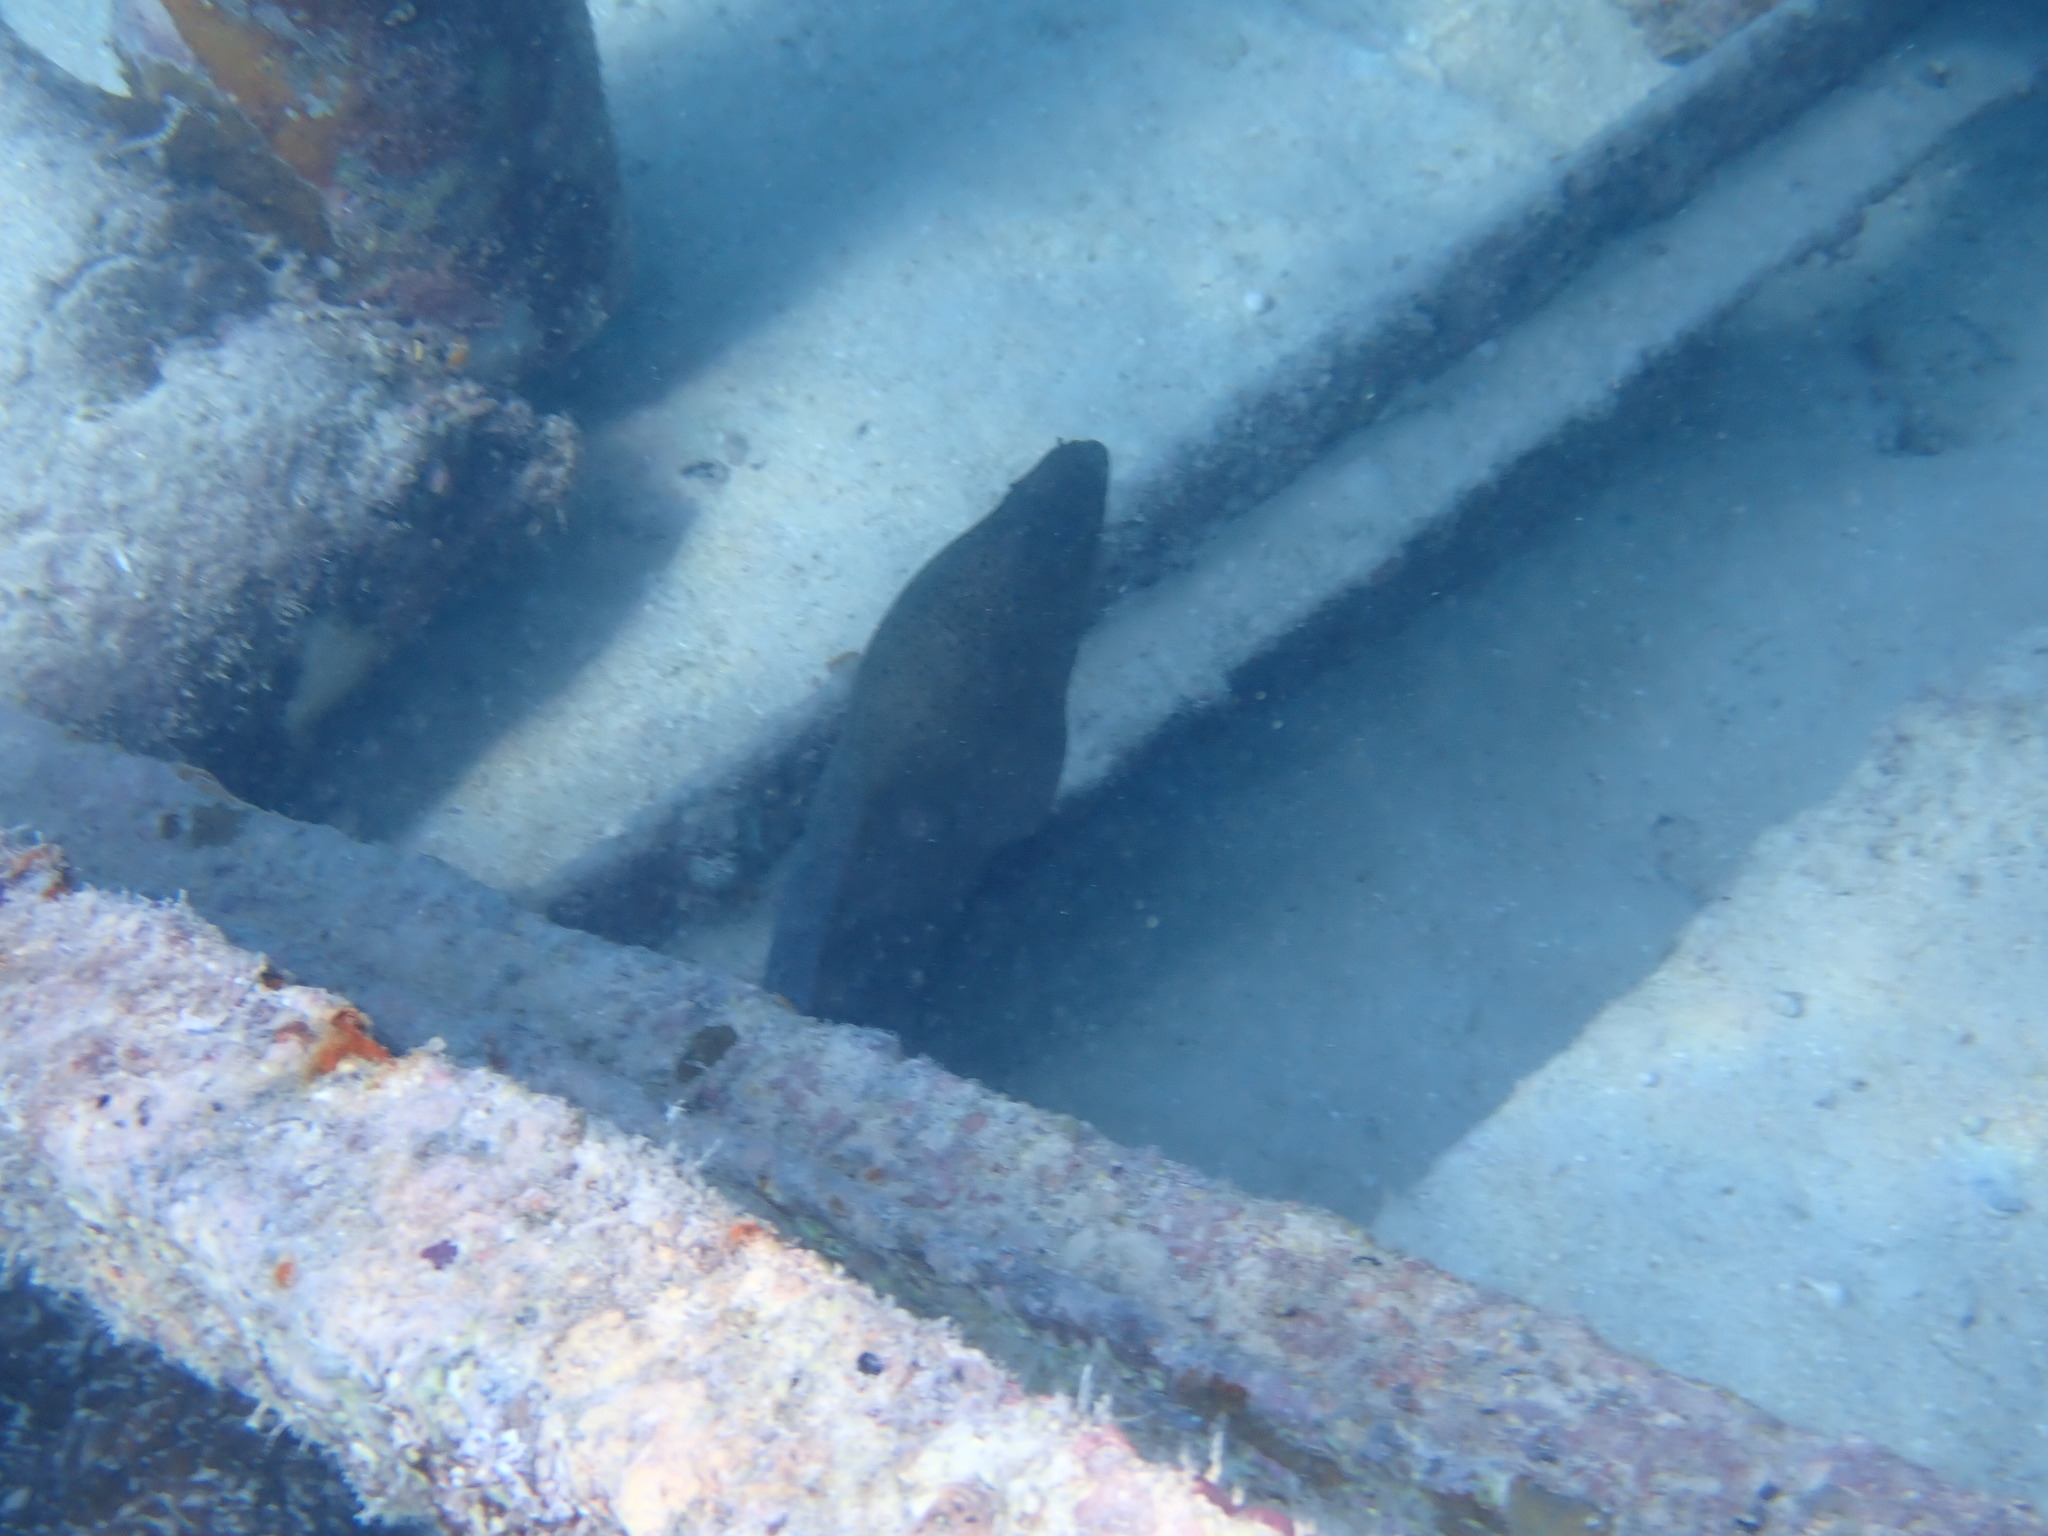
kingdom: Animalia
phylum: Chordata
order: Anguilliformes
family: Muraenidae
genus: Gymnothorax
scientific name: Gymnothorax javanicus
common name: Giant moray
